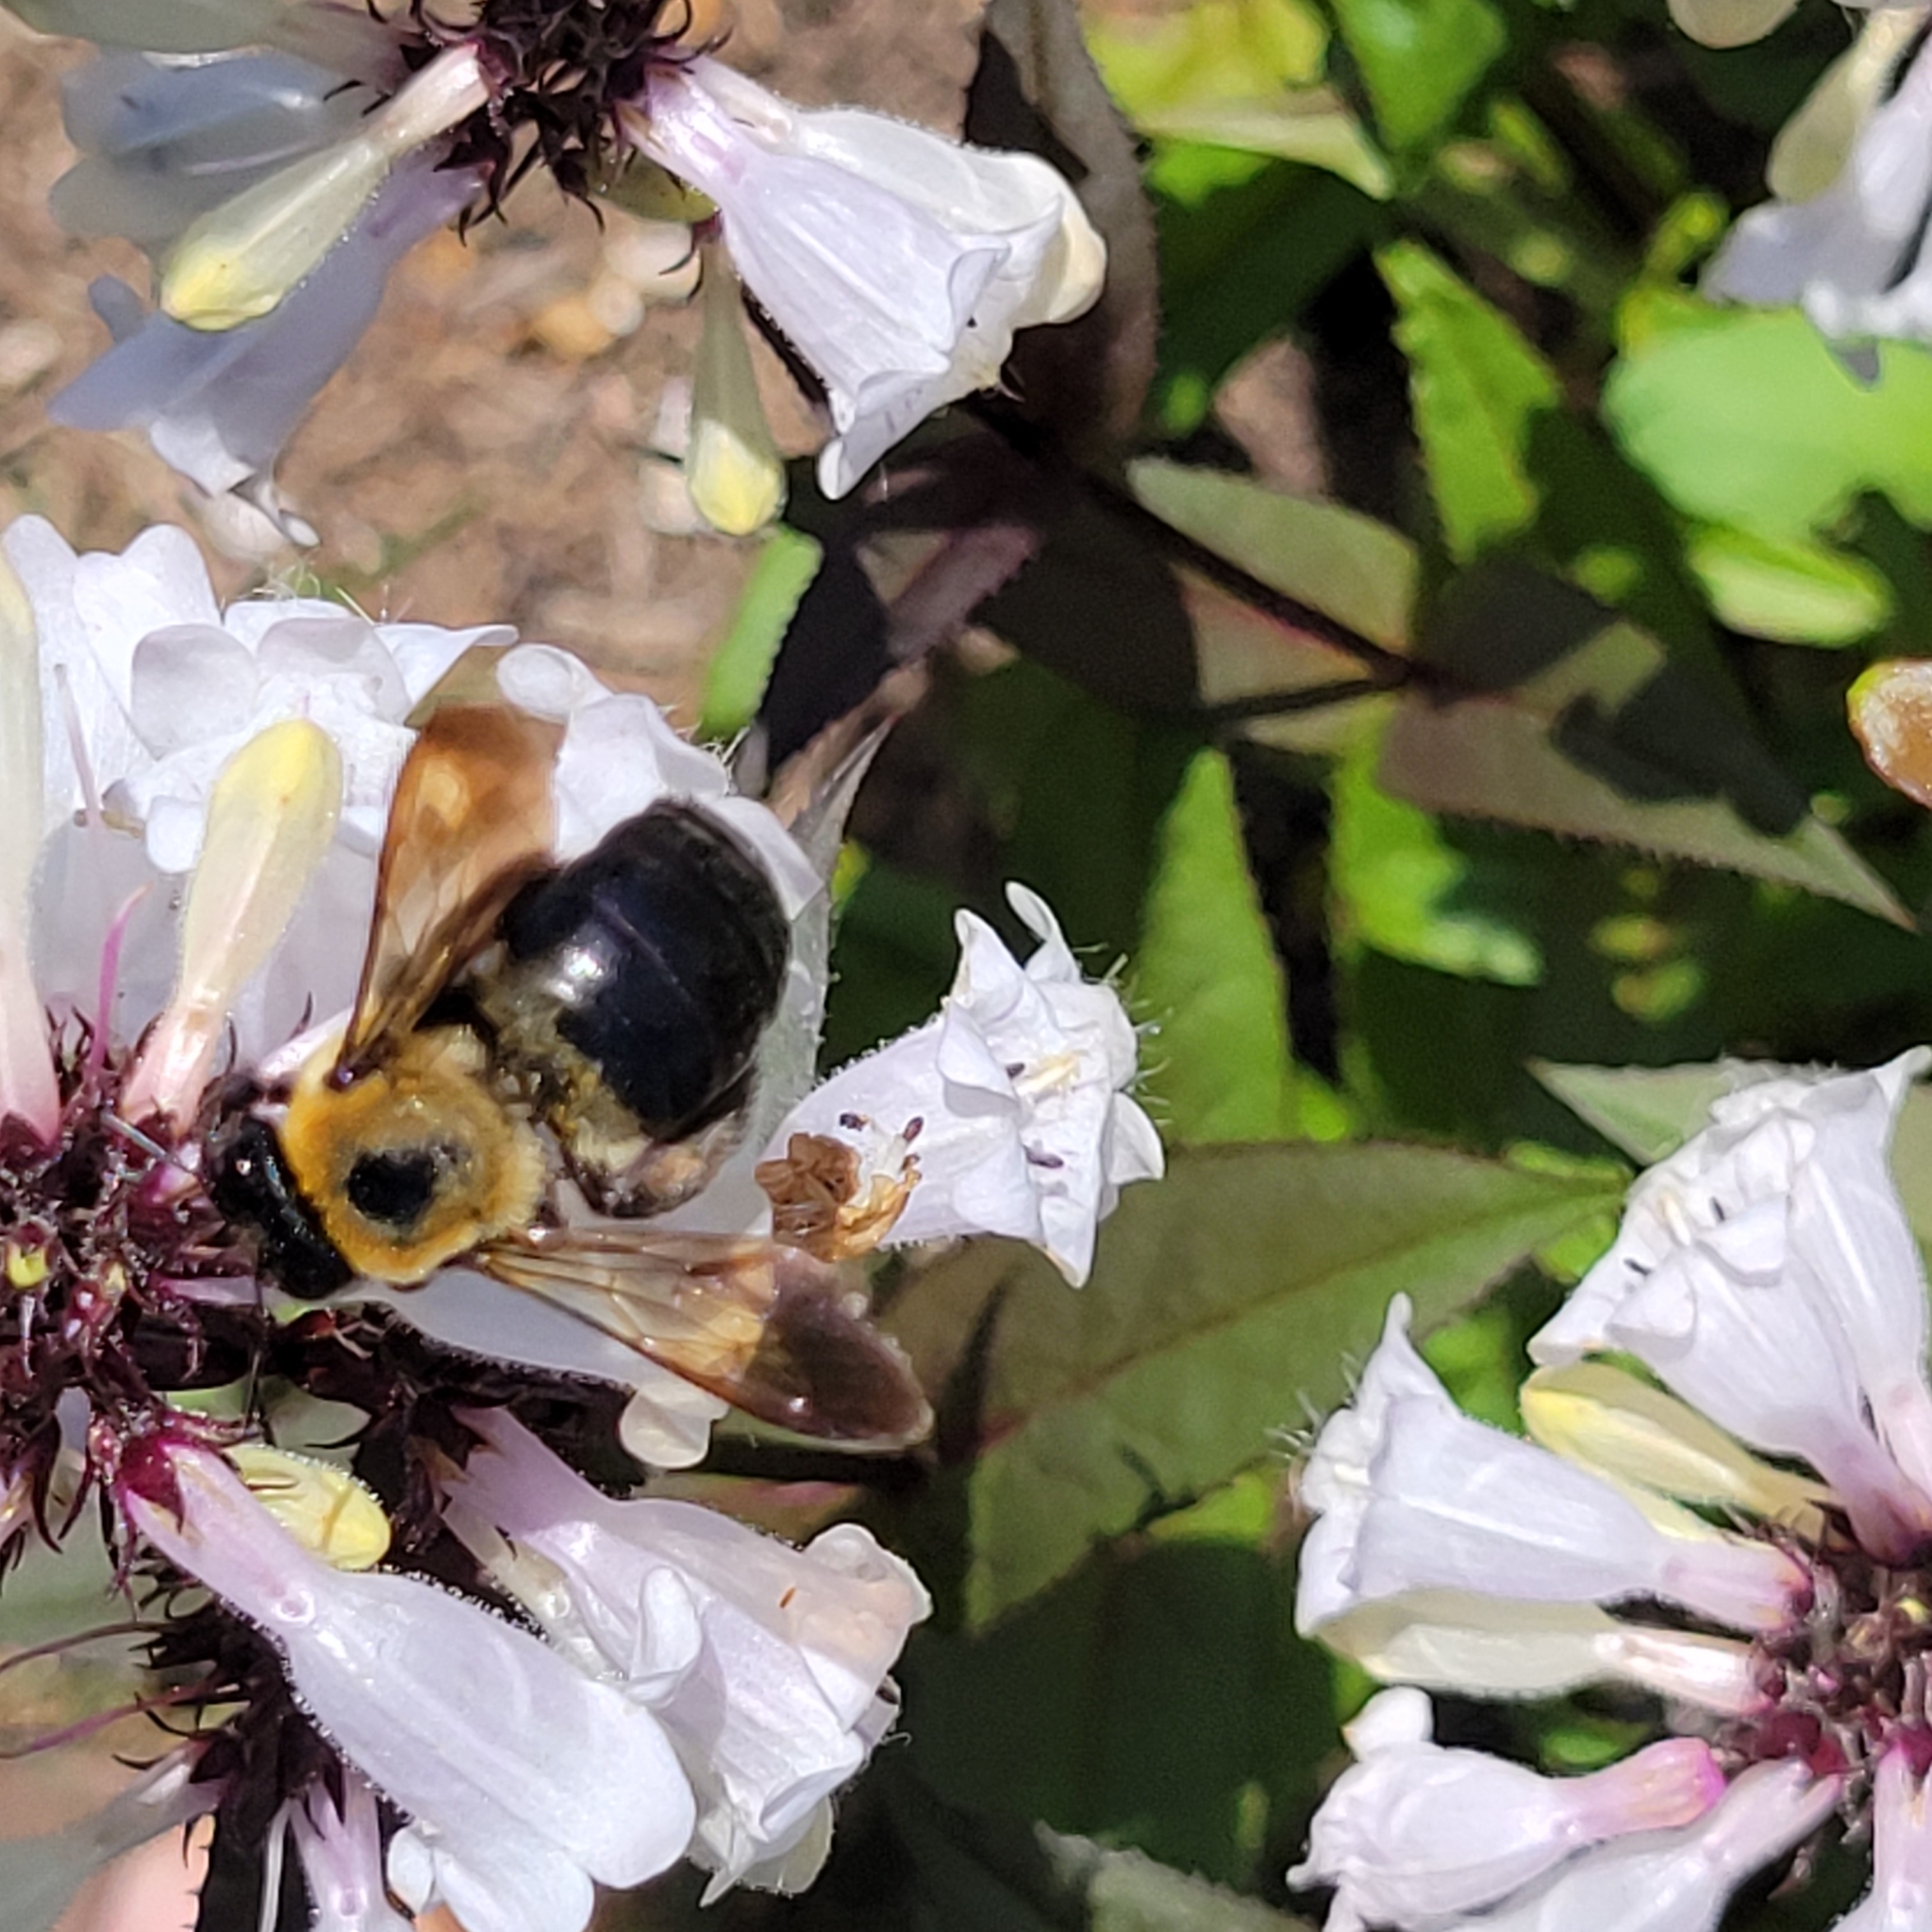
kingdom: Animalia
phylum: Arthropoda
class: Insecta
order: Hymenoptera
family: Apidae
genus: Xylocopa
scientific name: Xylocopa virginica
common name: Carpenter bee
